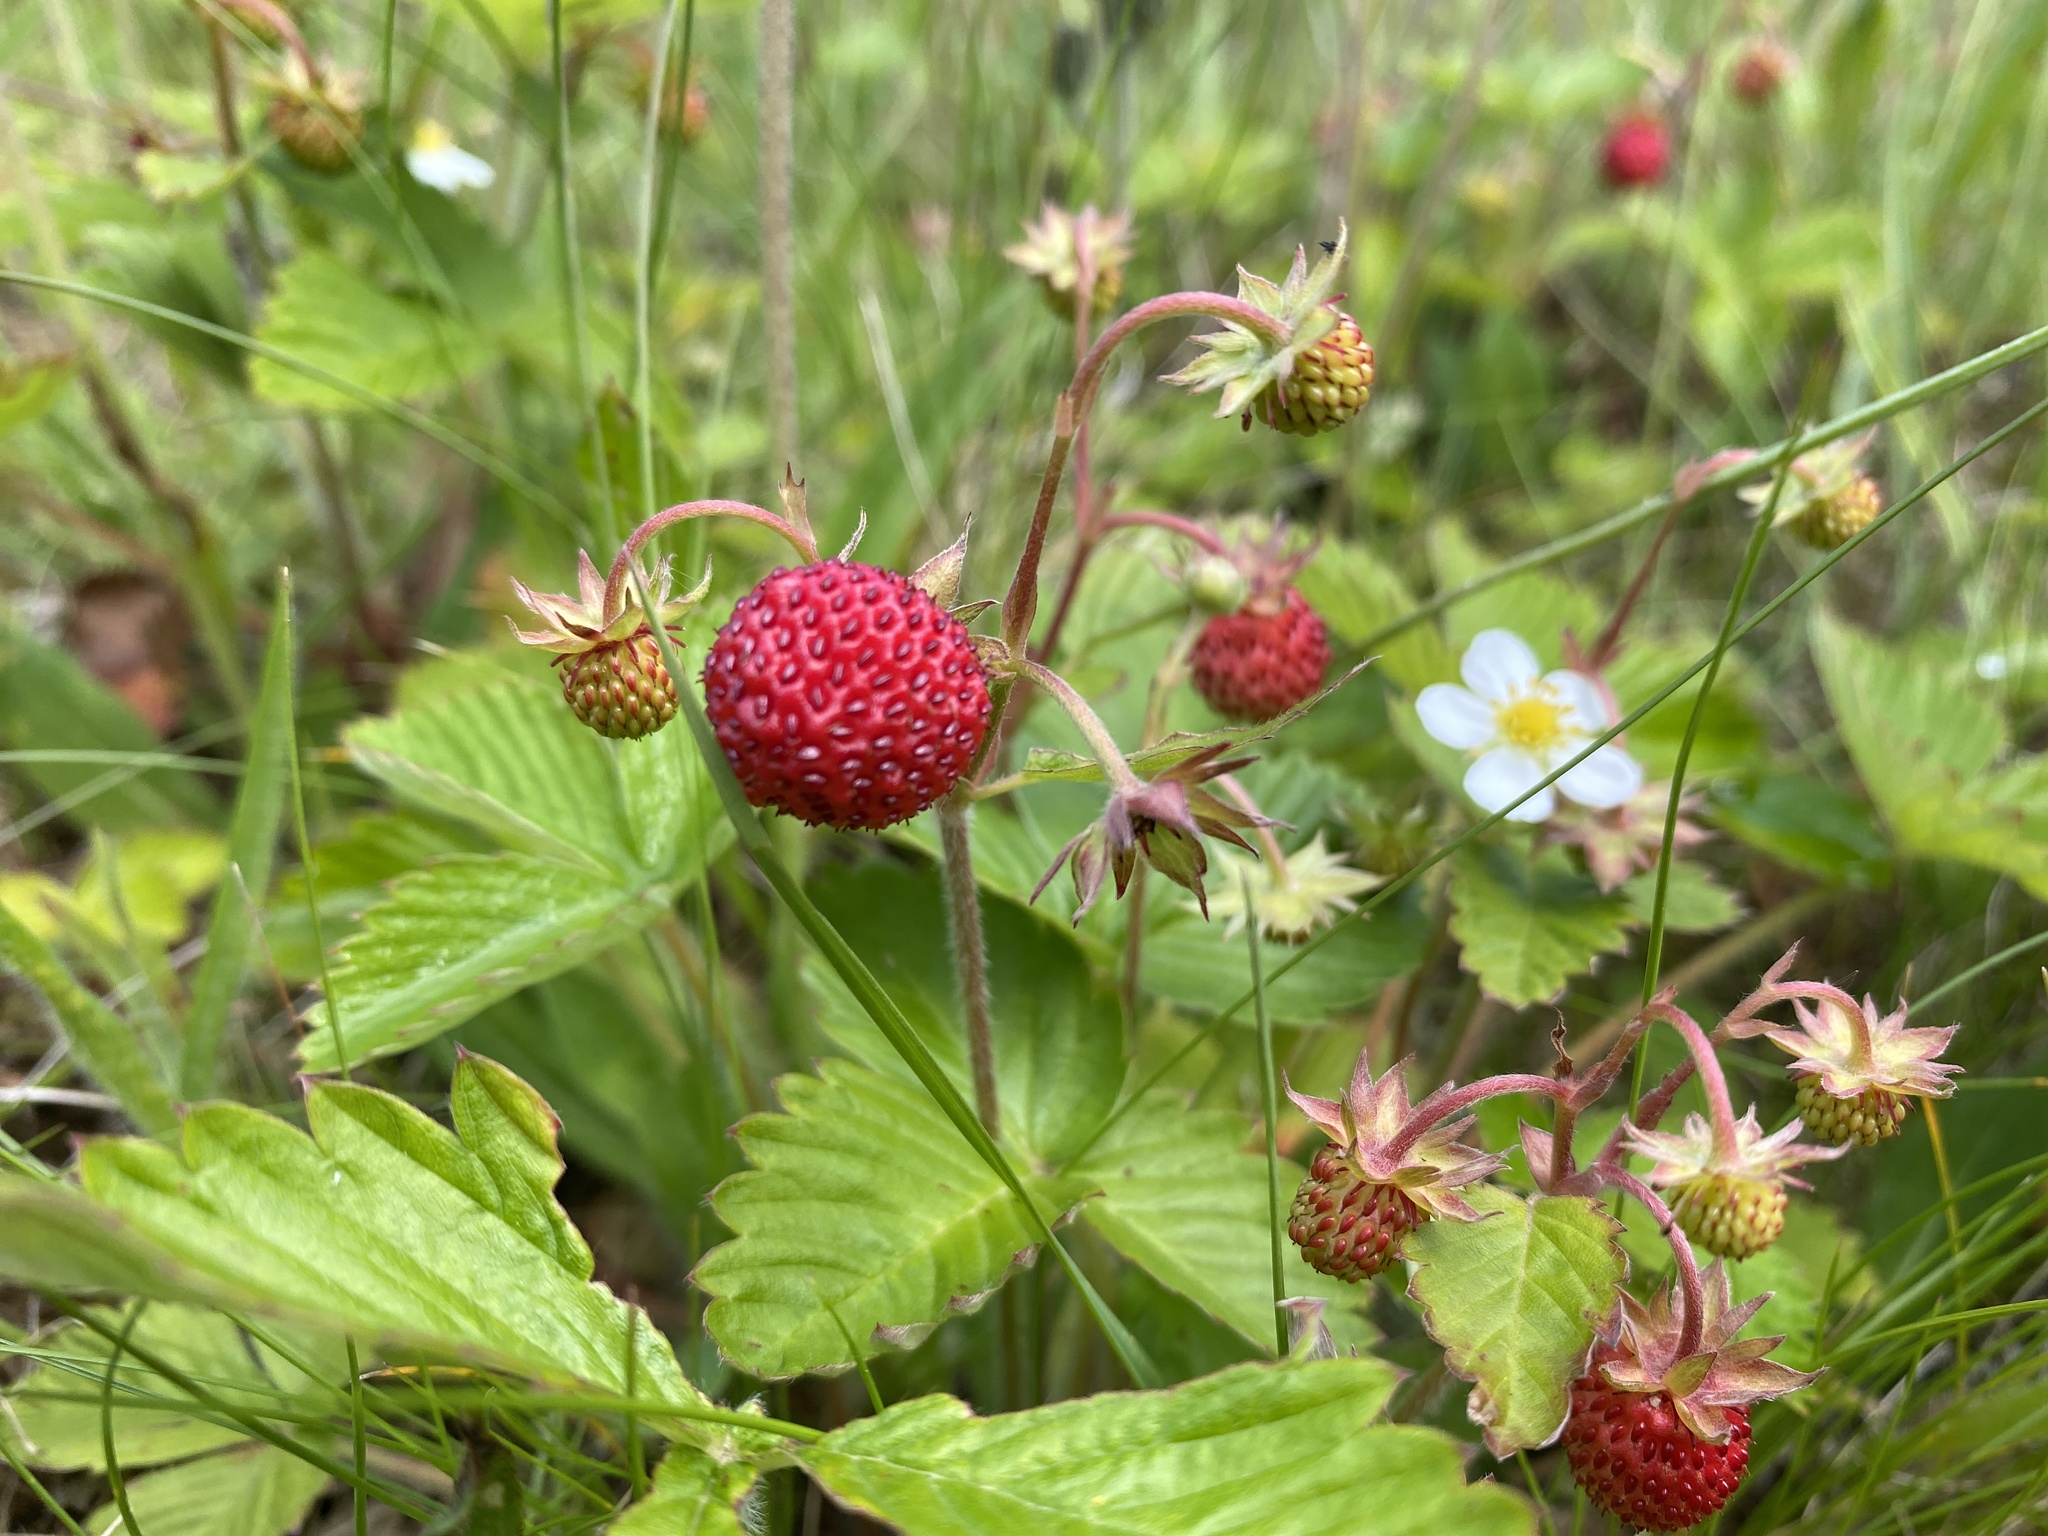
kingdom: Plantae
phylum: Tracheophyta
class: Magnoliopsida
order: Rosales
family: Rosaceae
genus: Fragaria
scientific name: Fragaria vesca
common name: Wild strawberry
